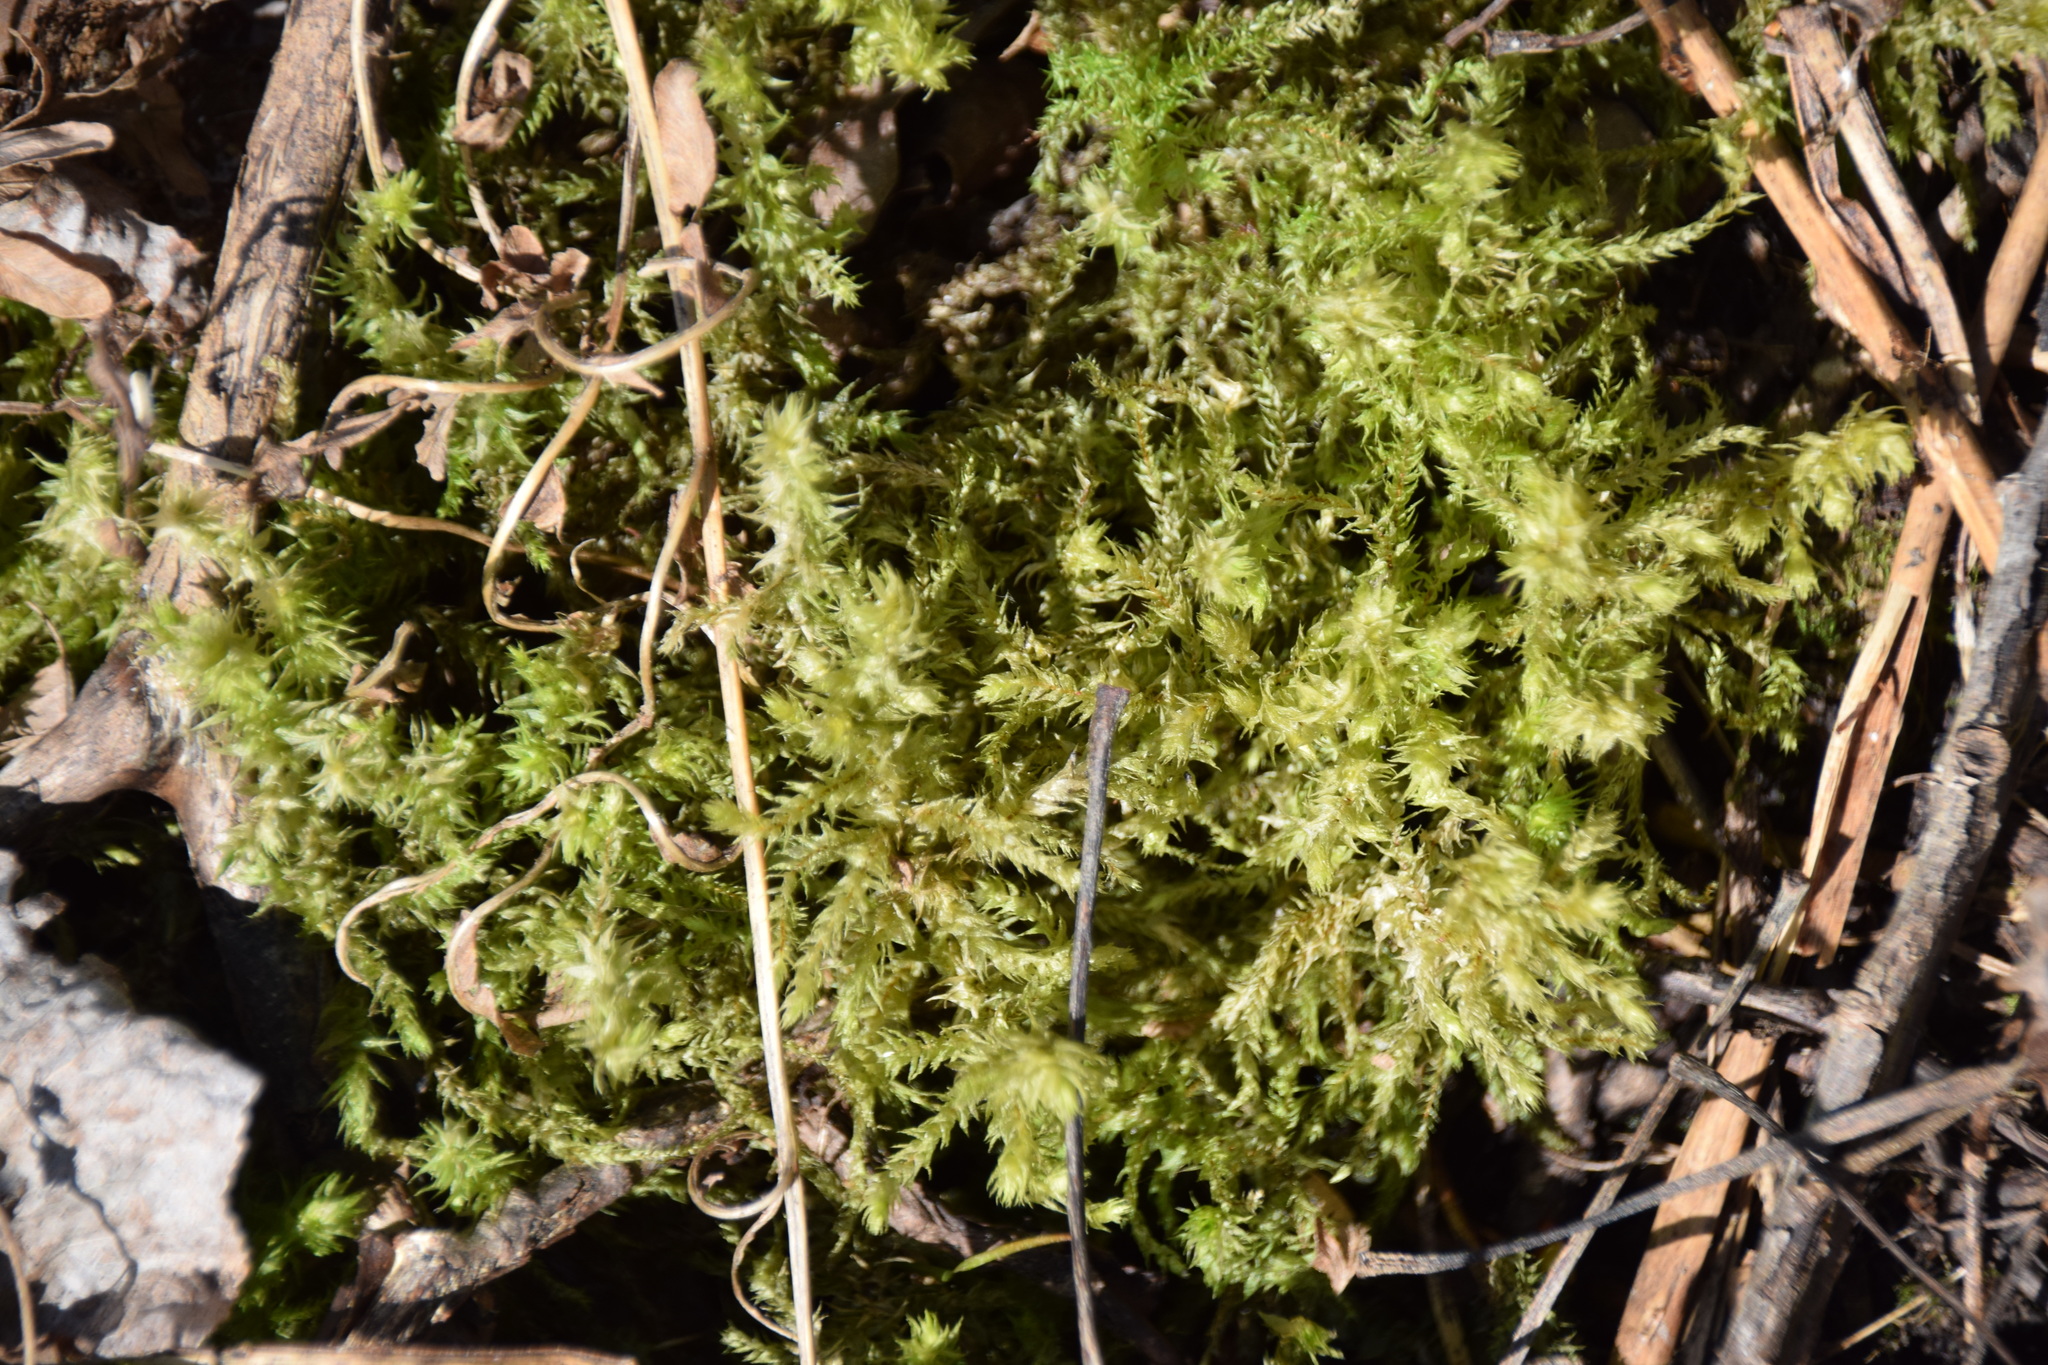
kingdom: Plantae
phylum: Bryophyta
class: Bryopsida
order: Hypnales
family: Hylocomiaceae
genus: Hylocomiadelphus
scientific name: Hylocomiadelphus triquetrus
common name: Rough goose neck moss
